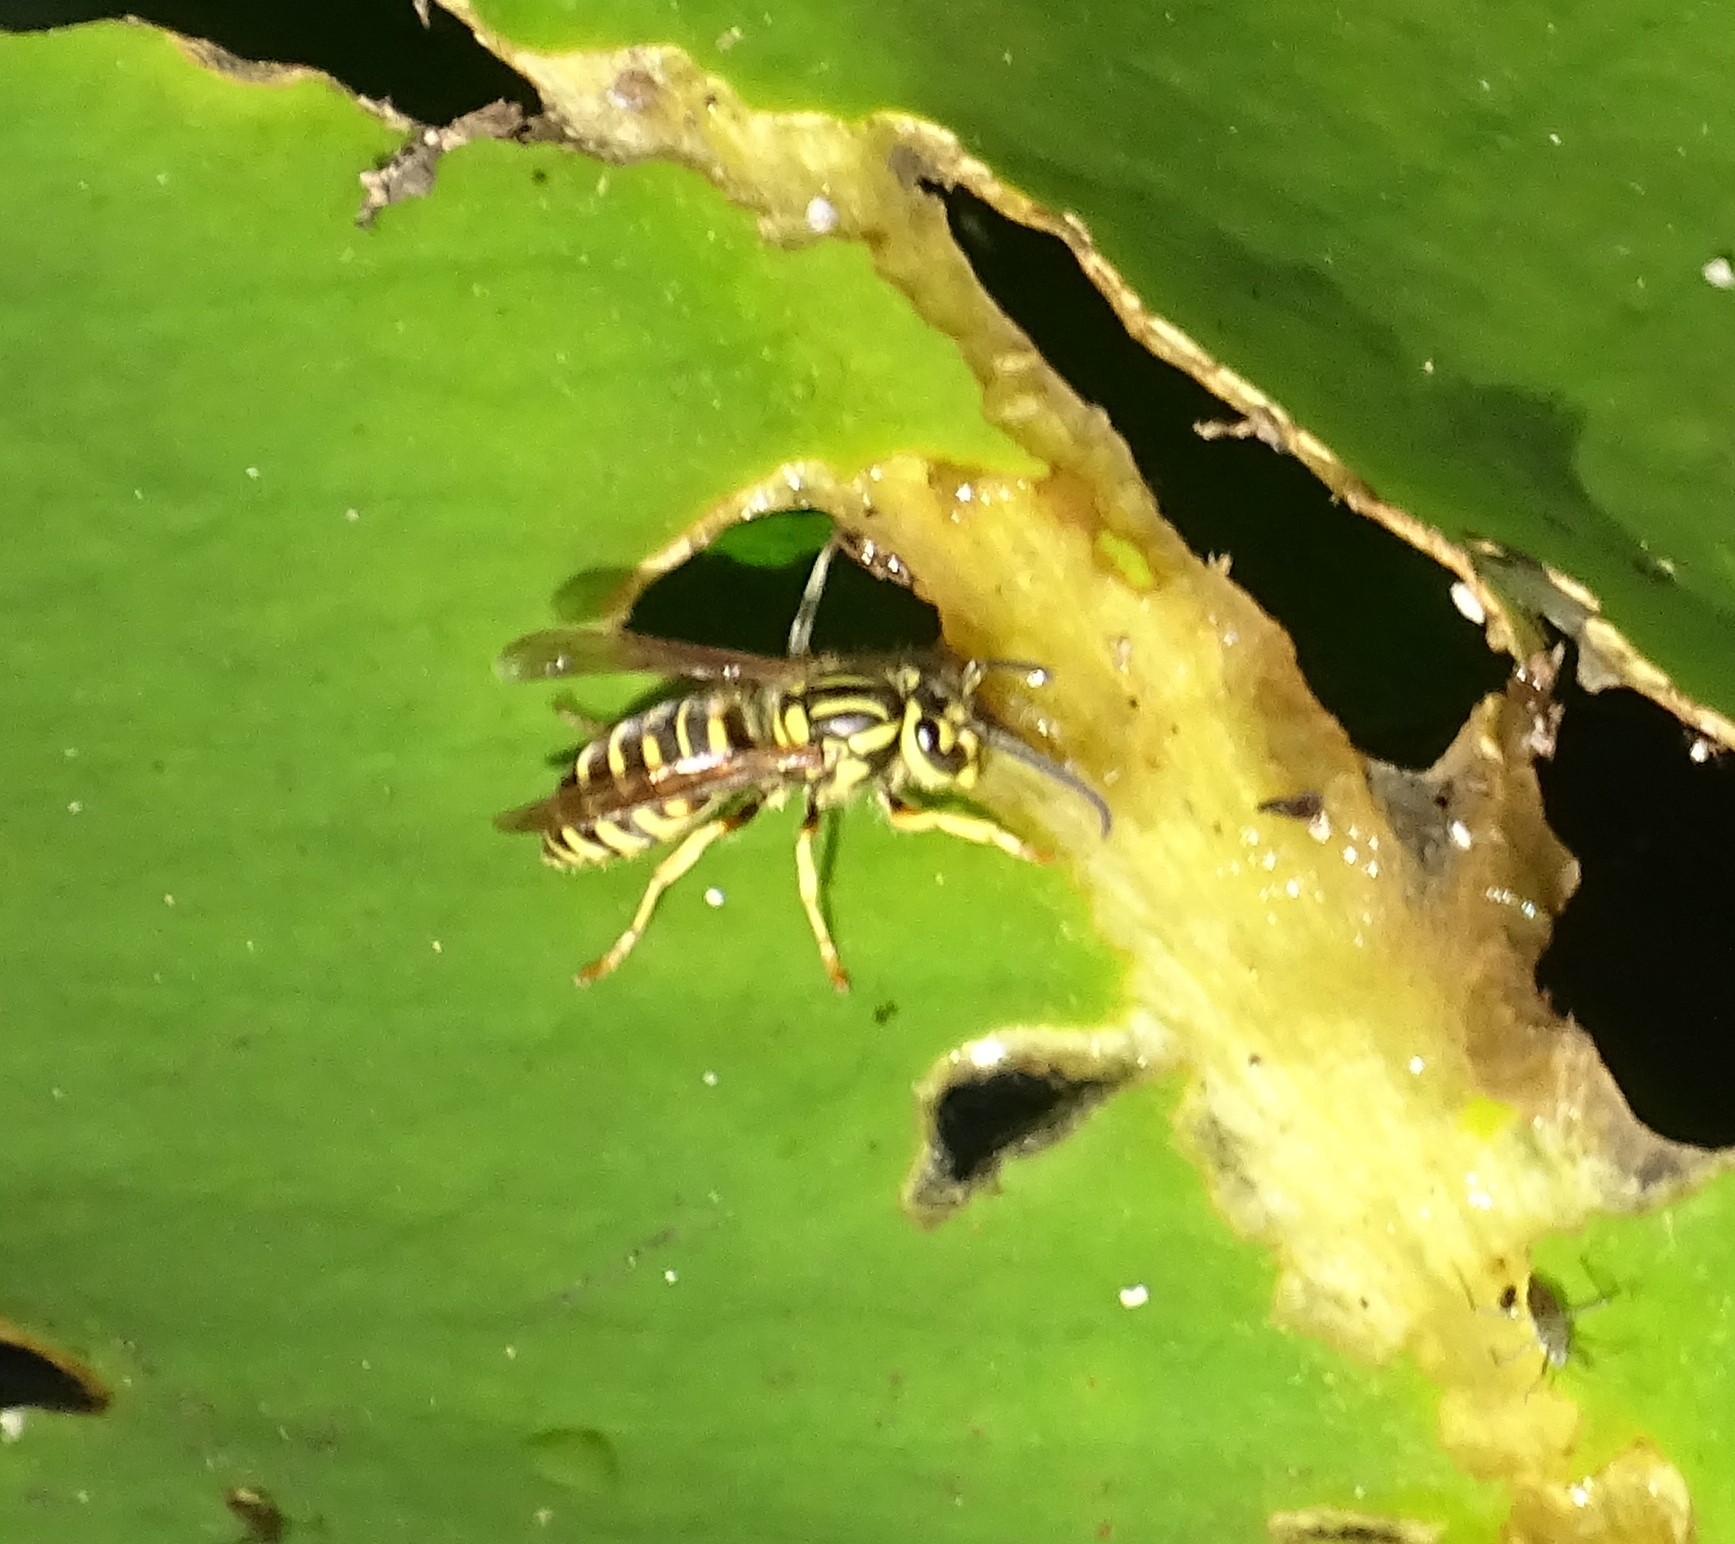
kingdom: Animalia
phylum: Arthropoda
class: Insecta
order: Hymenoptera
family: Vespidae
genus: Vespula
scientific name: Vespula squamosa
